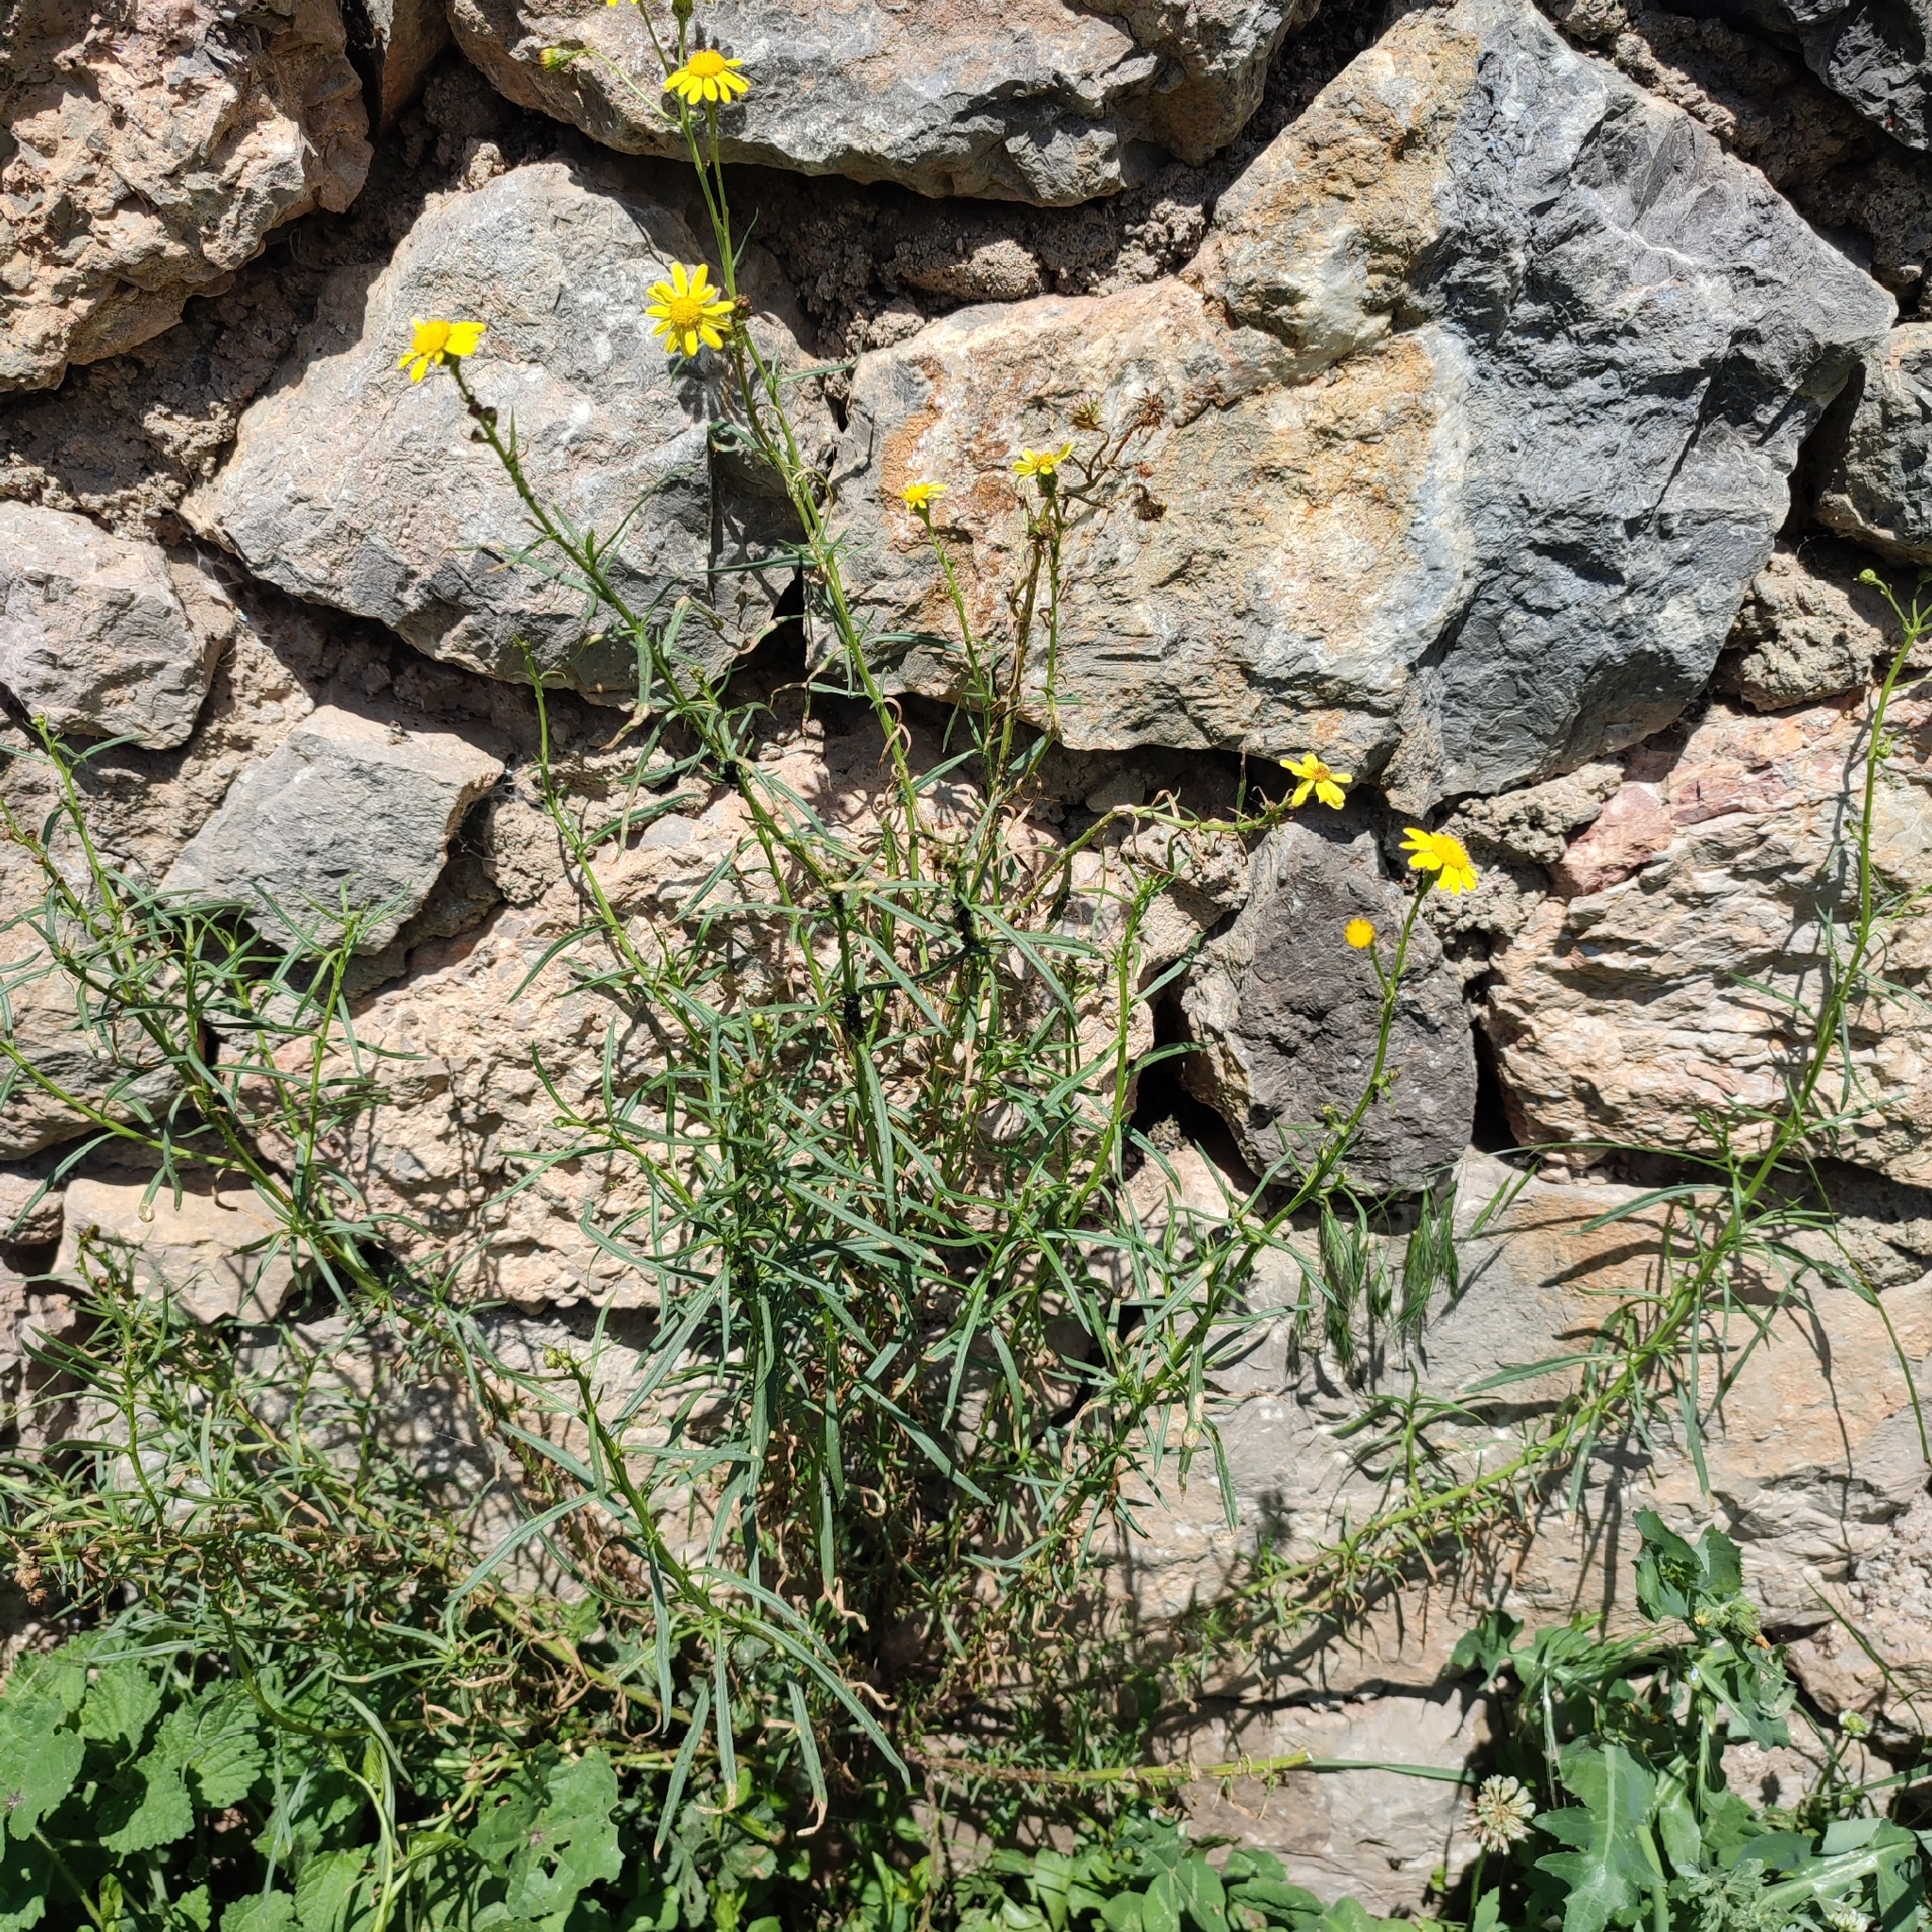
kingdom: Plantae
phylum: Tracheophyta
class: Magnoliopsida
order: Asterales
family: Asteraceae
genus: Senecio
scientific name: Senecio inaequidens
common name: Narrow-leaved ragwort
